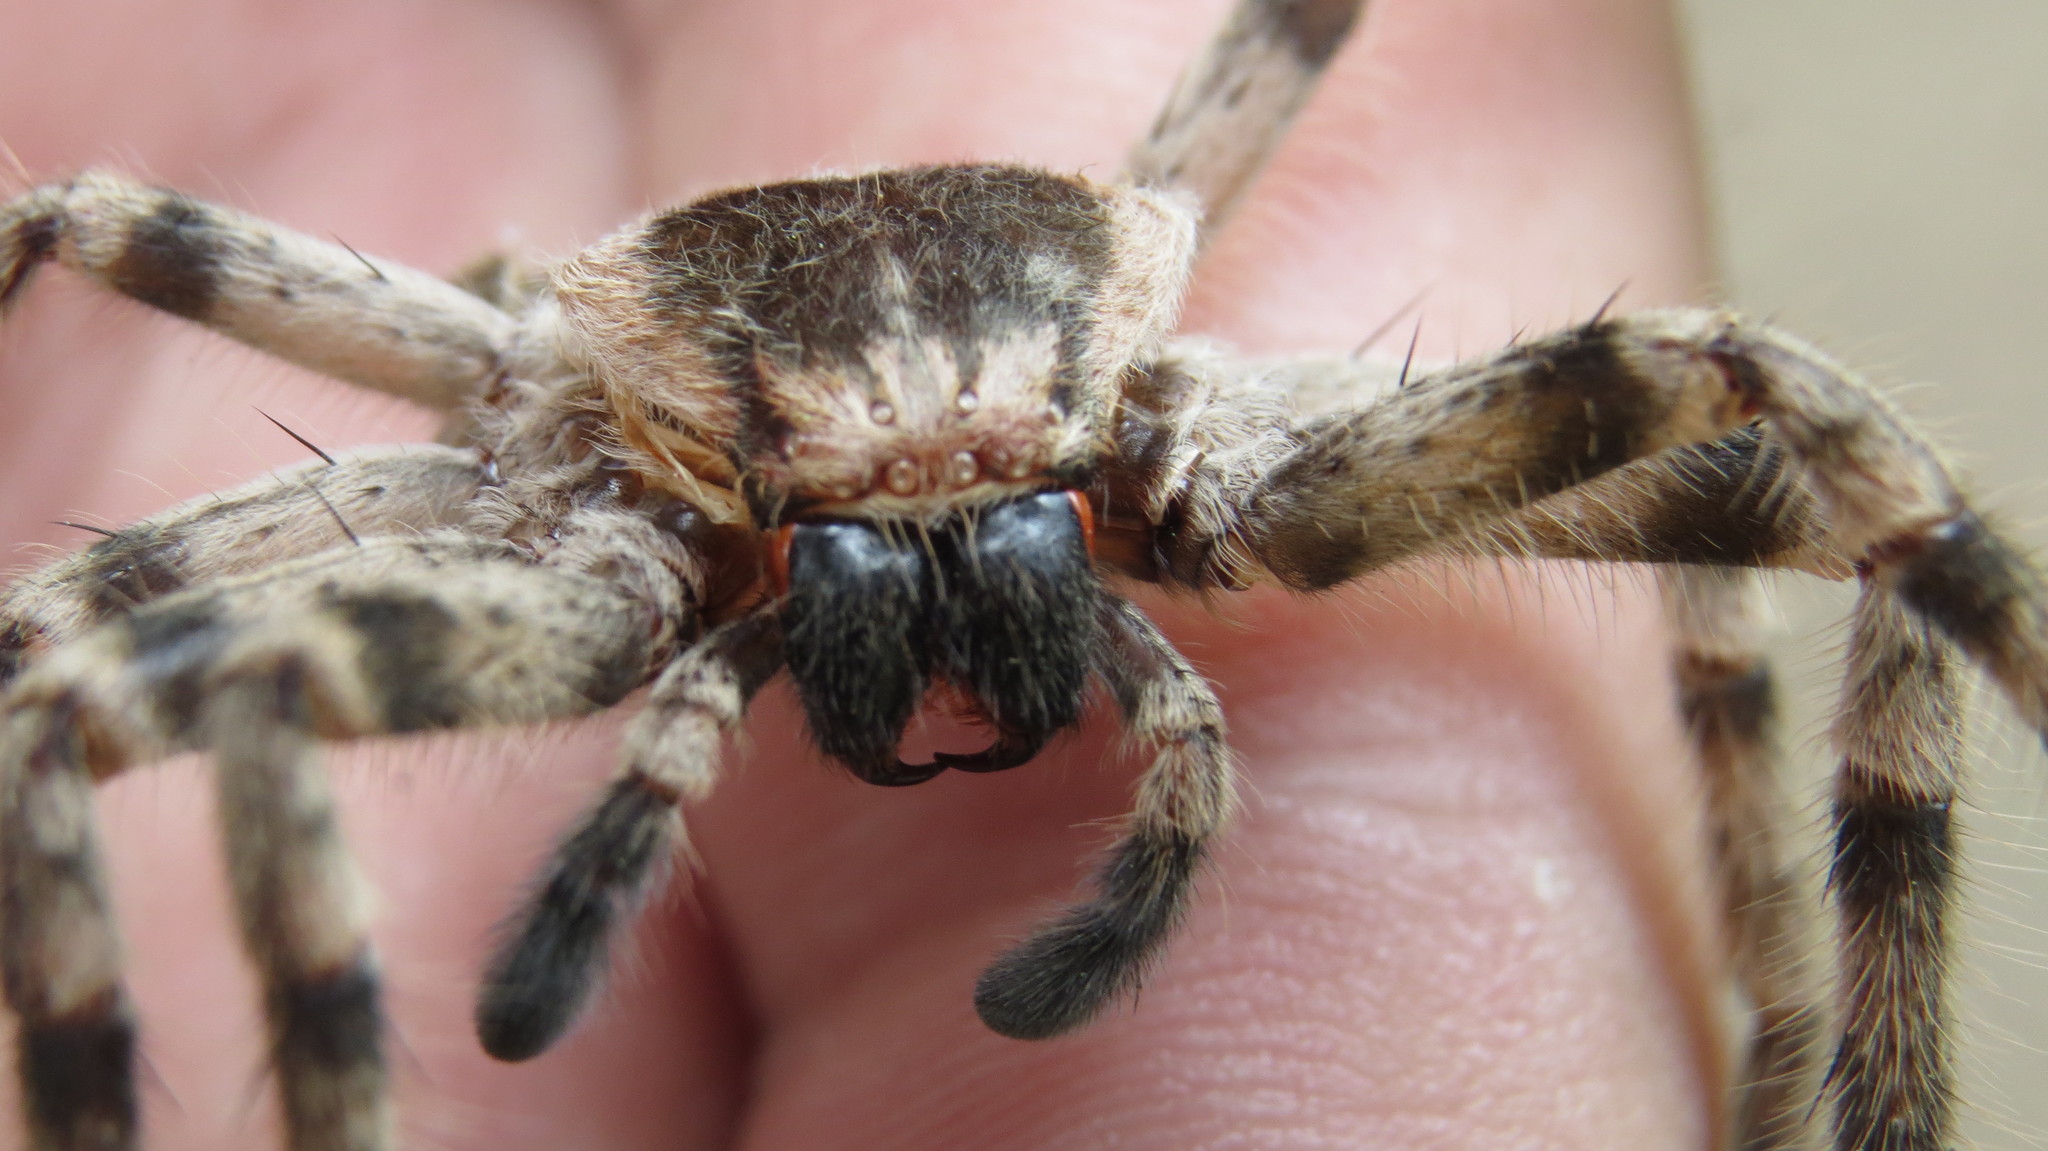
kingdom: Animalia
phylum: Arthropoda
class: Arachnida
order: Araneae
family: Sparassidae
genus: Polybetes
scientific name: Polybetes pythagoricus
